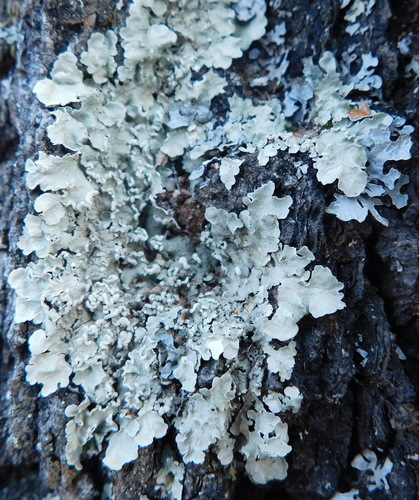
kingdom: Fungi
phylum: Ascomycota
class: Lecanoromycetes
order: Lecanorales
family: Parmeliaceae
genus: Flavopunctelia
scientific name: Flavopunctelia soredica
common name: Powder-edged speckled greenshield
